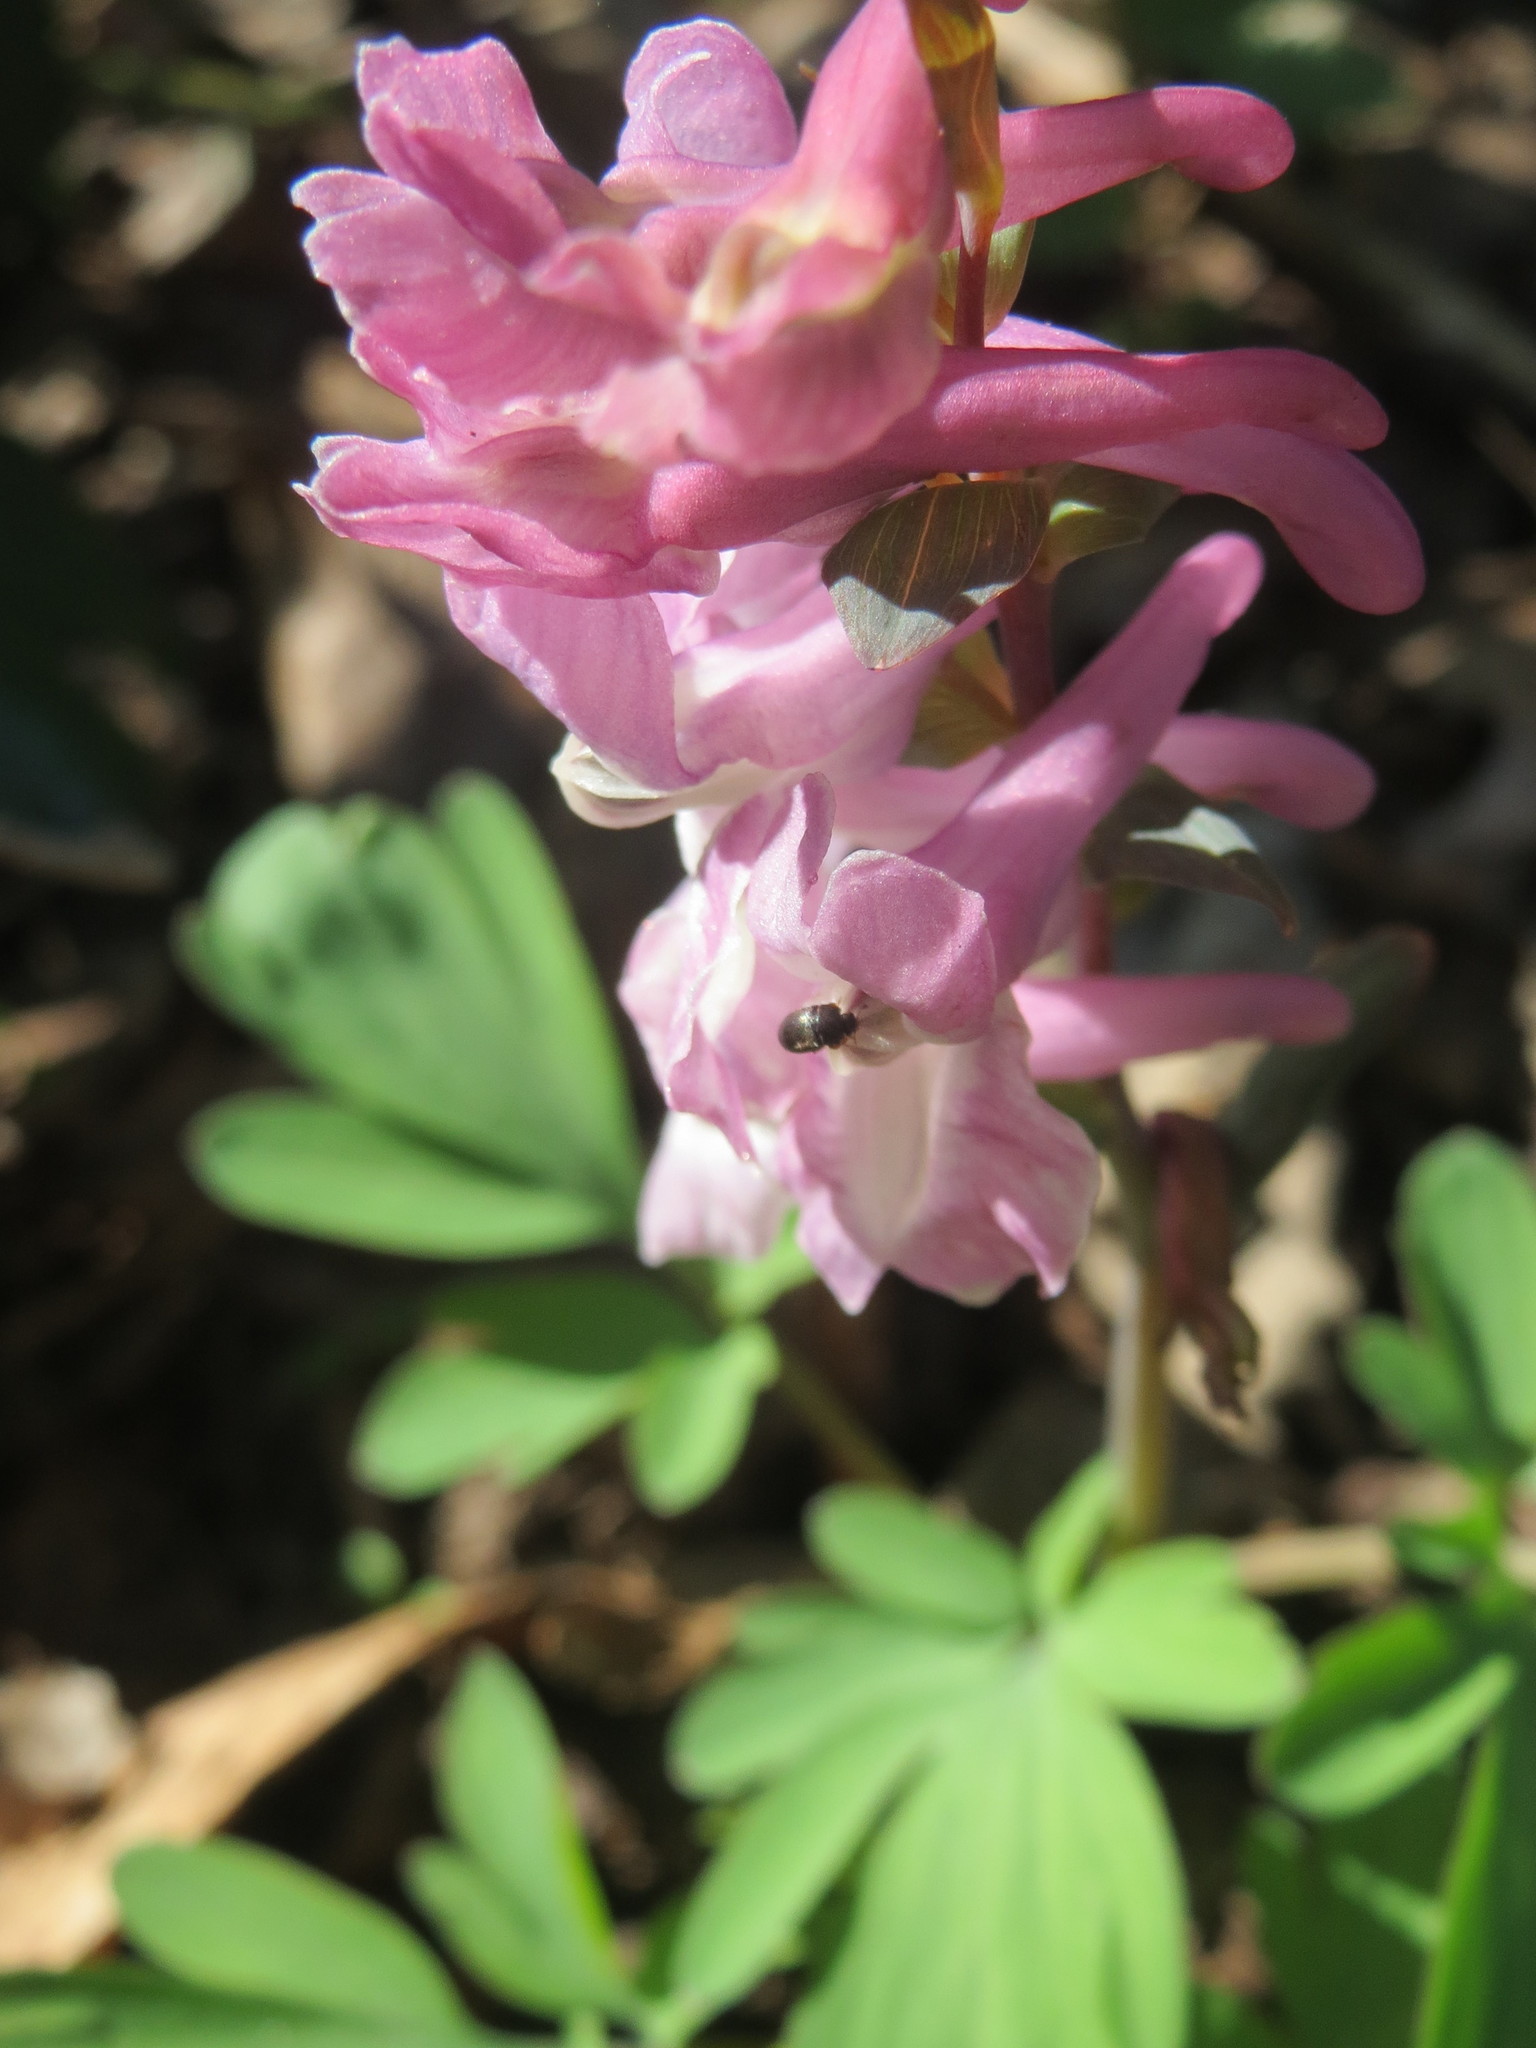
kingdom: Plantae
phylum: Tracheophyta
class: Magnoliopsida
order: Ranunculales
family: Papaveraceae
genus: Corydalis
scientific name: Corydalis cava
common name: Hollowroot
